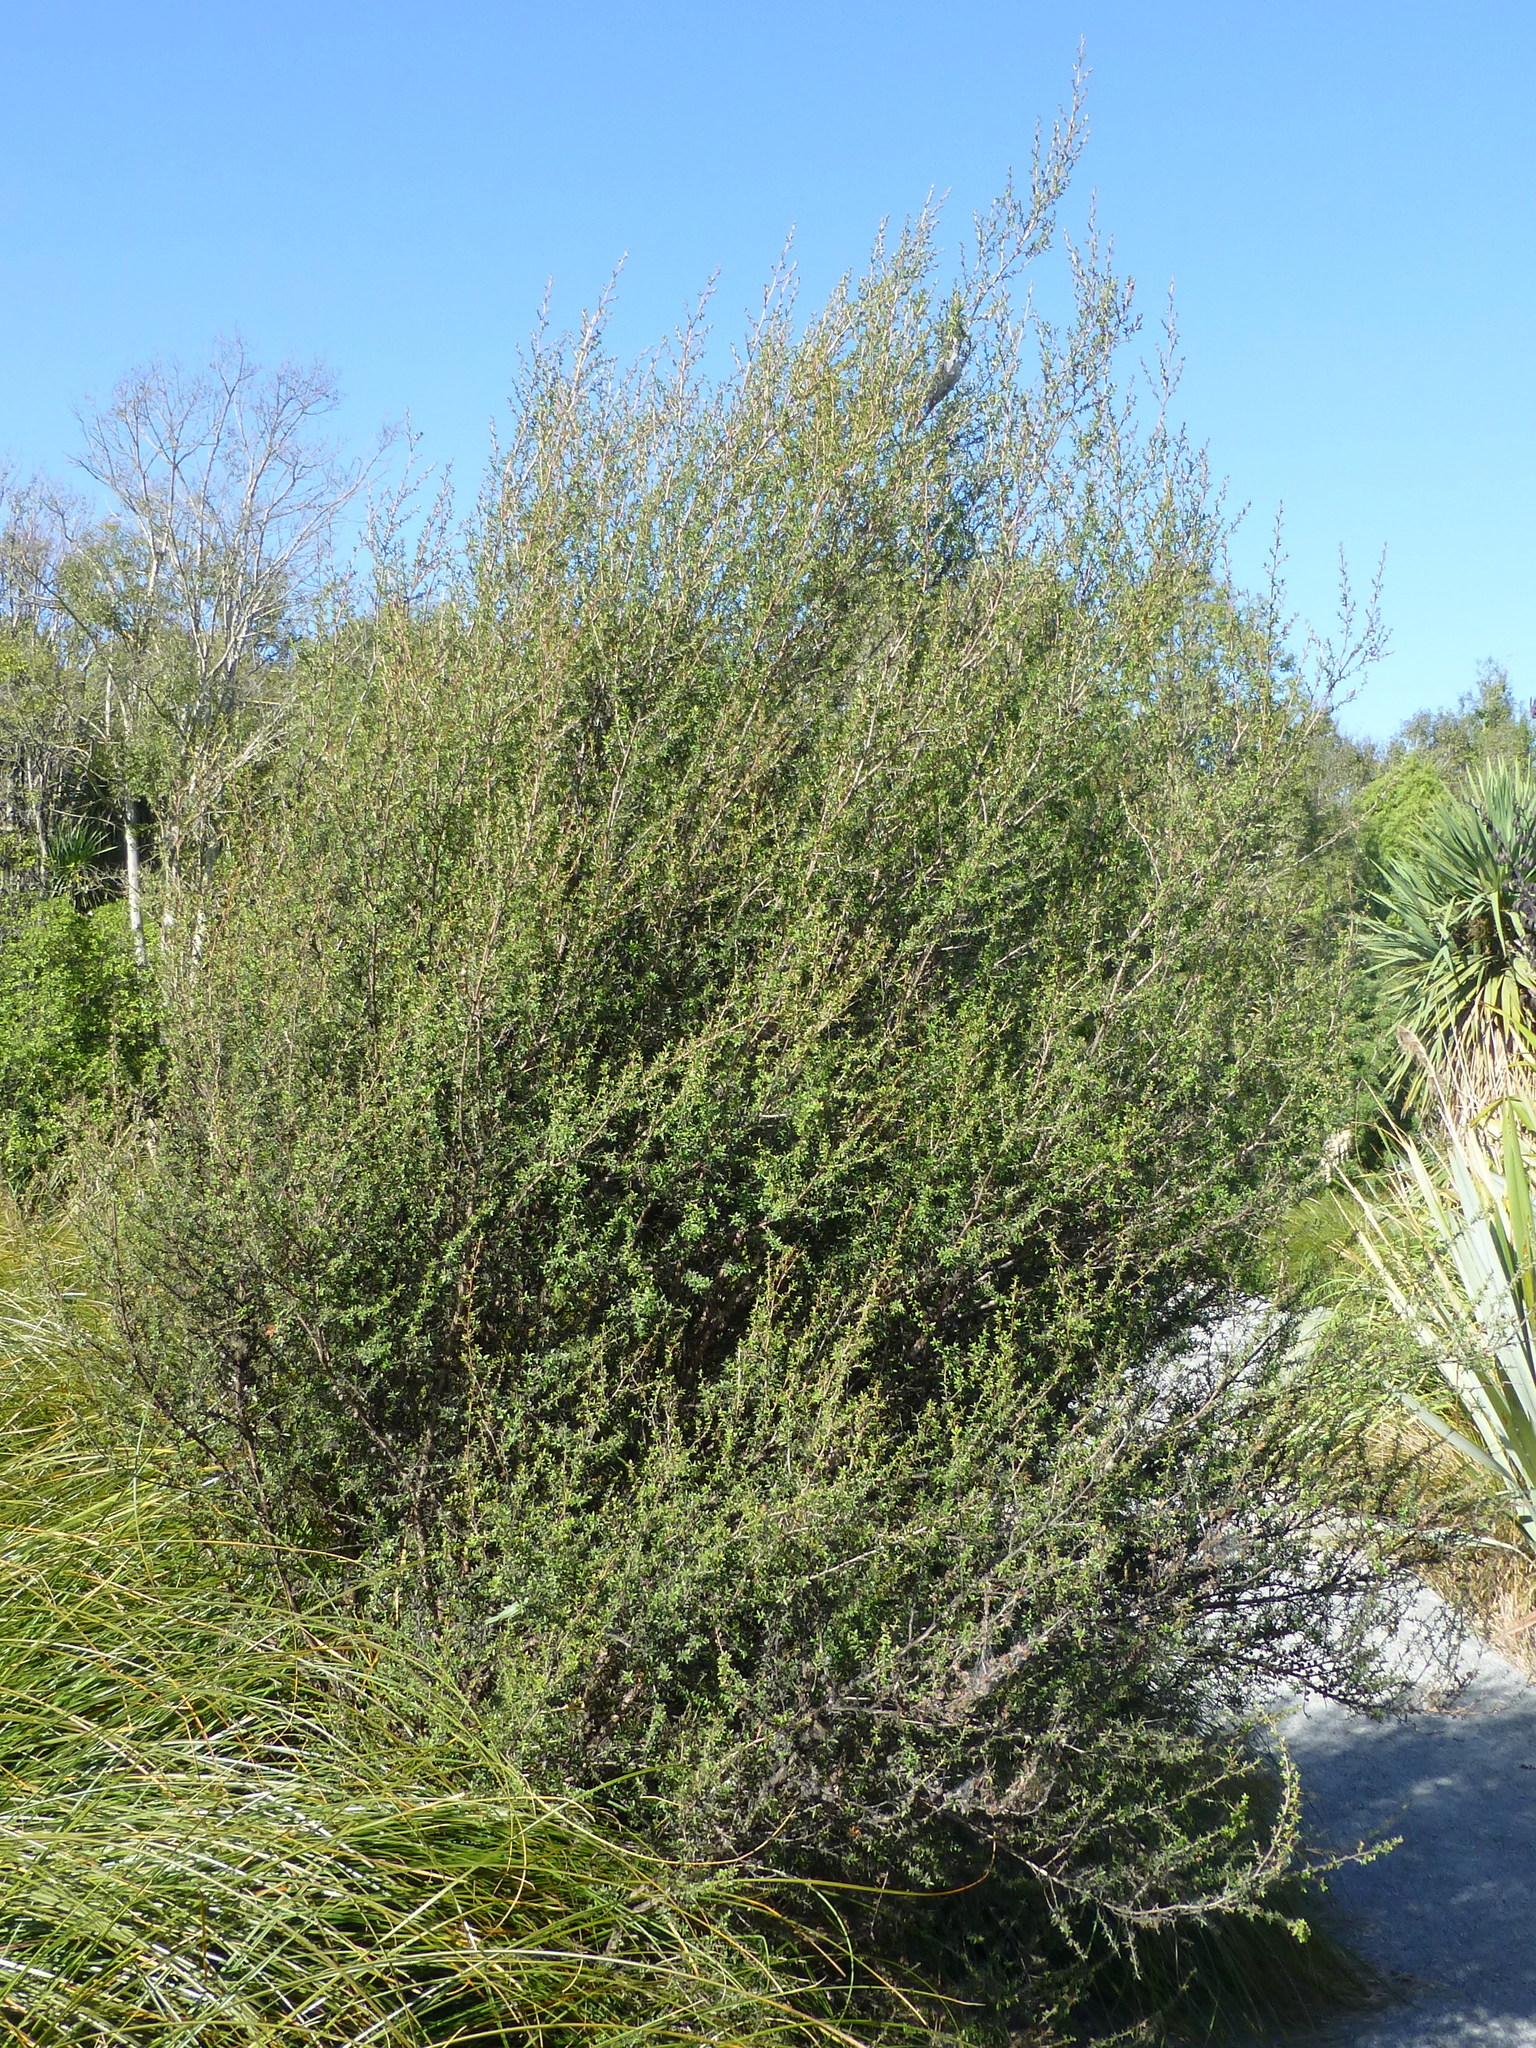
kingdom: Plantae
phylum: Tracheophyta
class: Magnoliopsida
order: Myrtales
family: Myrtaceae
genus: Leptospermum
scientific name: Leptospermum scoparium
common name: Broom tea-tree
